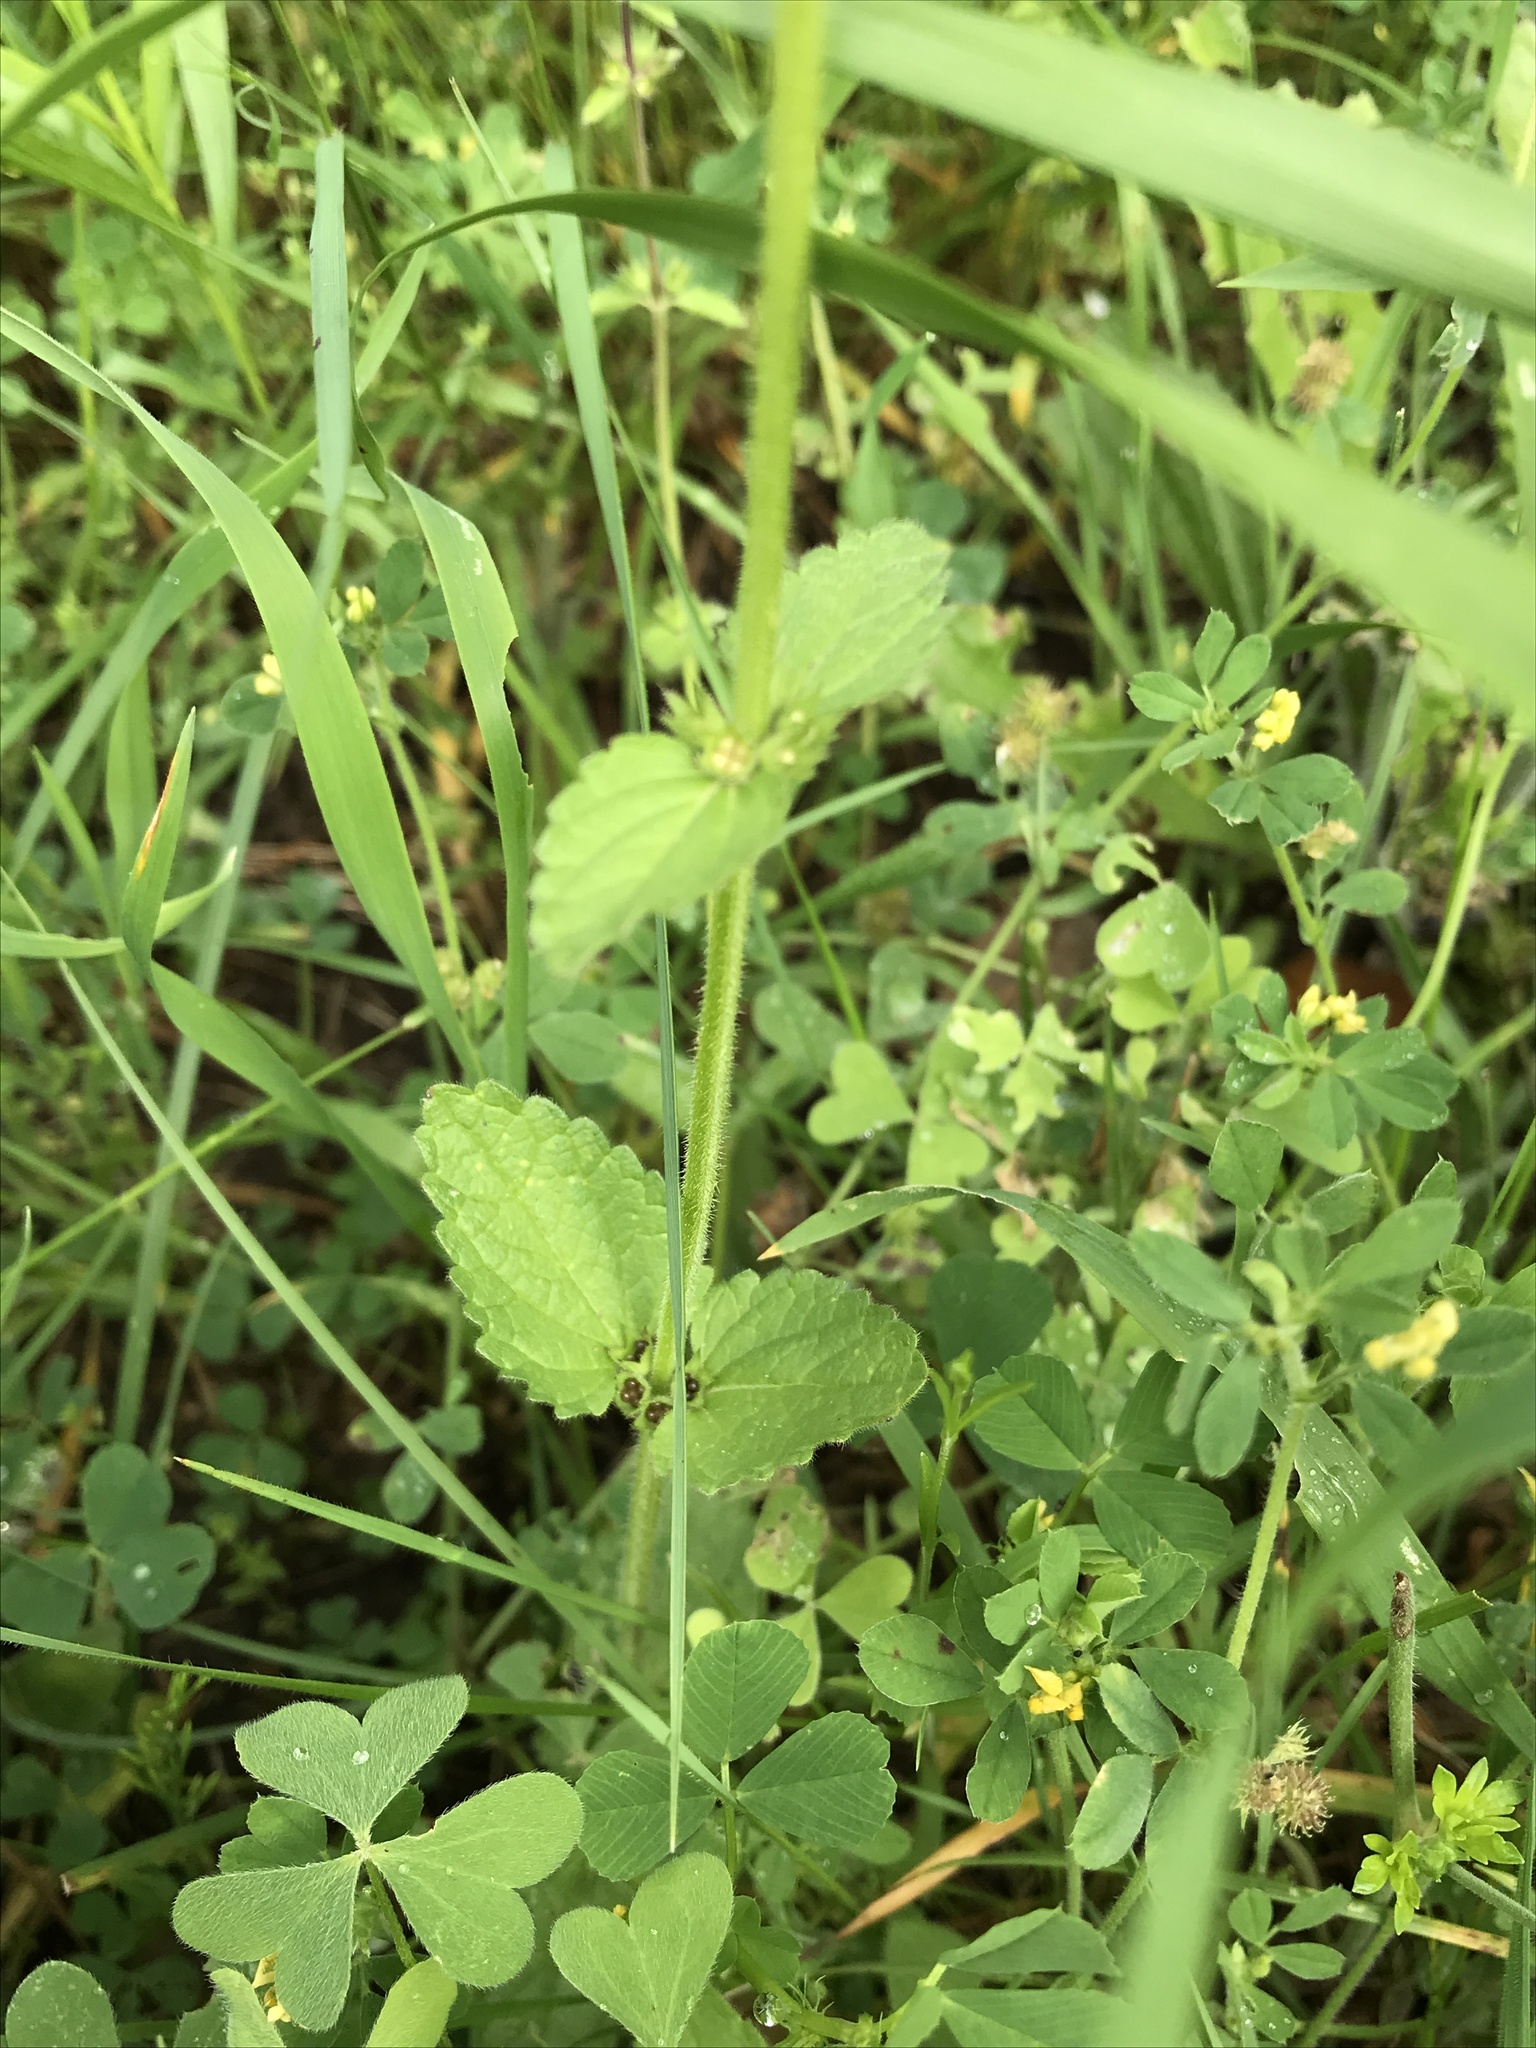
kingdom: Plantae
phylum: Tracheophyta
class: Magnoliopsida
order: Lamiales
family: Lamiaceae
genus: Stachys
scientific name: Stachys
